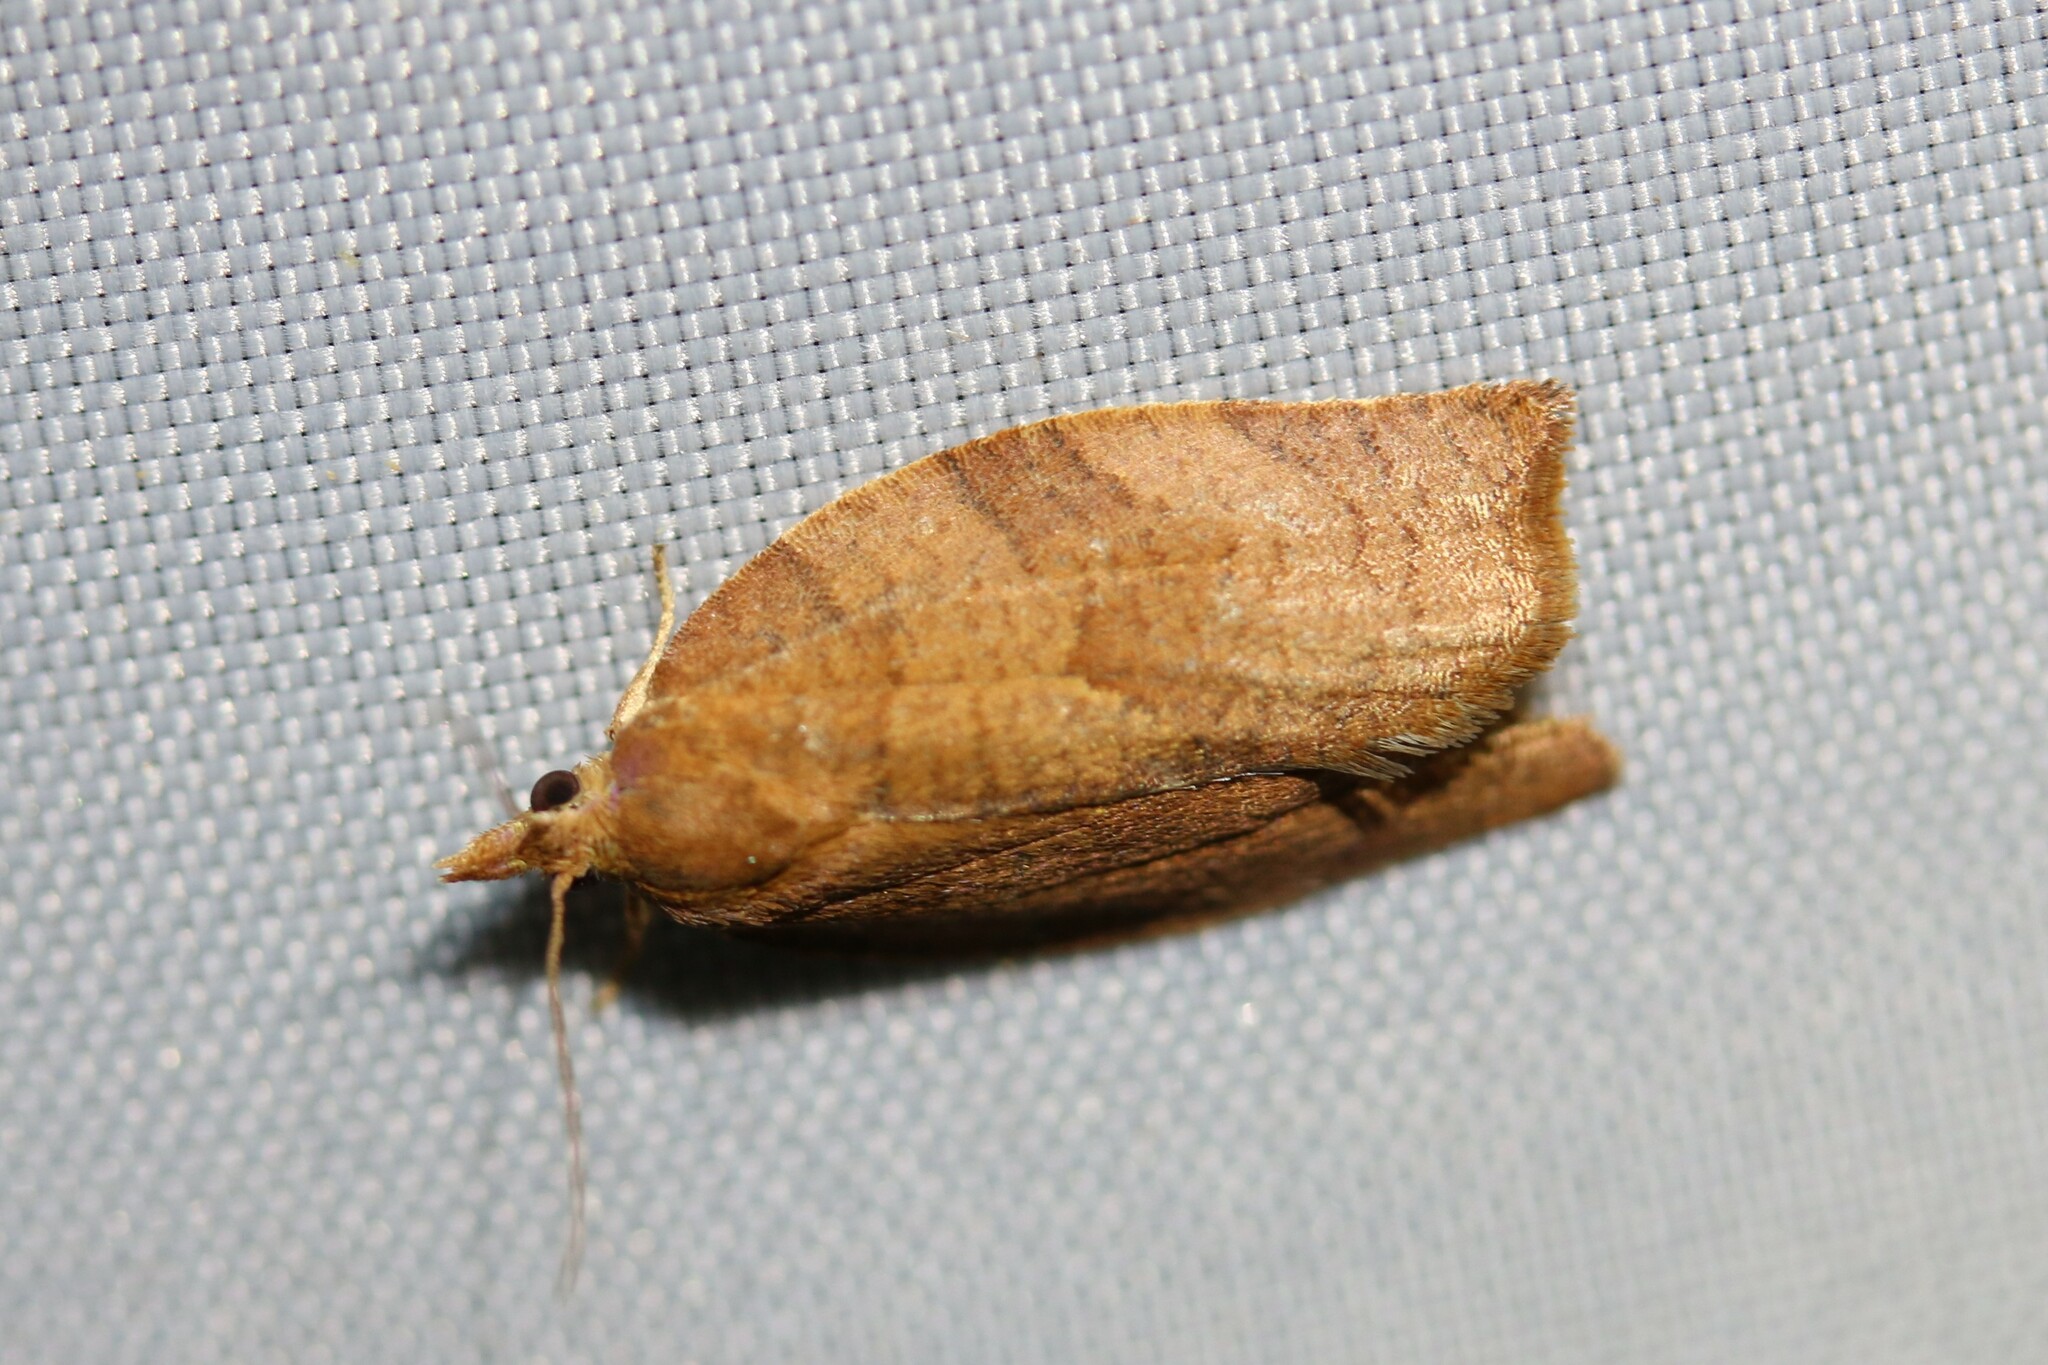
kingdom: Animalia
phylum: Arthropoda
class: Insecta
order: Lepidoptera
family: Tortricidae
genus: Pandemis
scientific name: Pandemis heparana
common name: Dark fruit-tree tortrix
